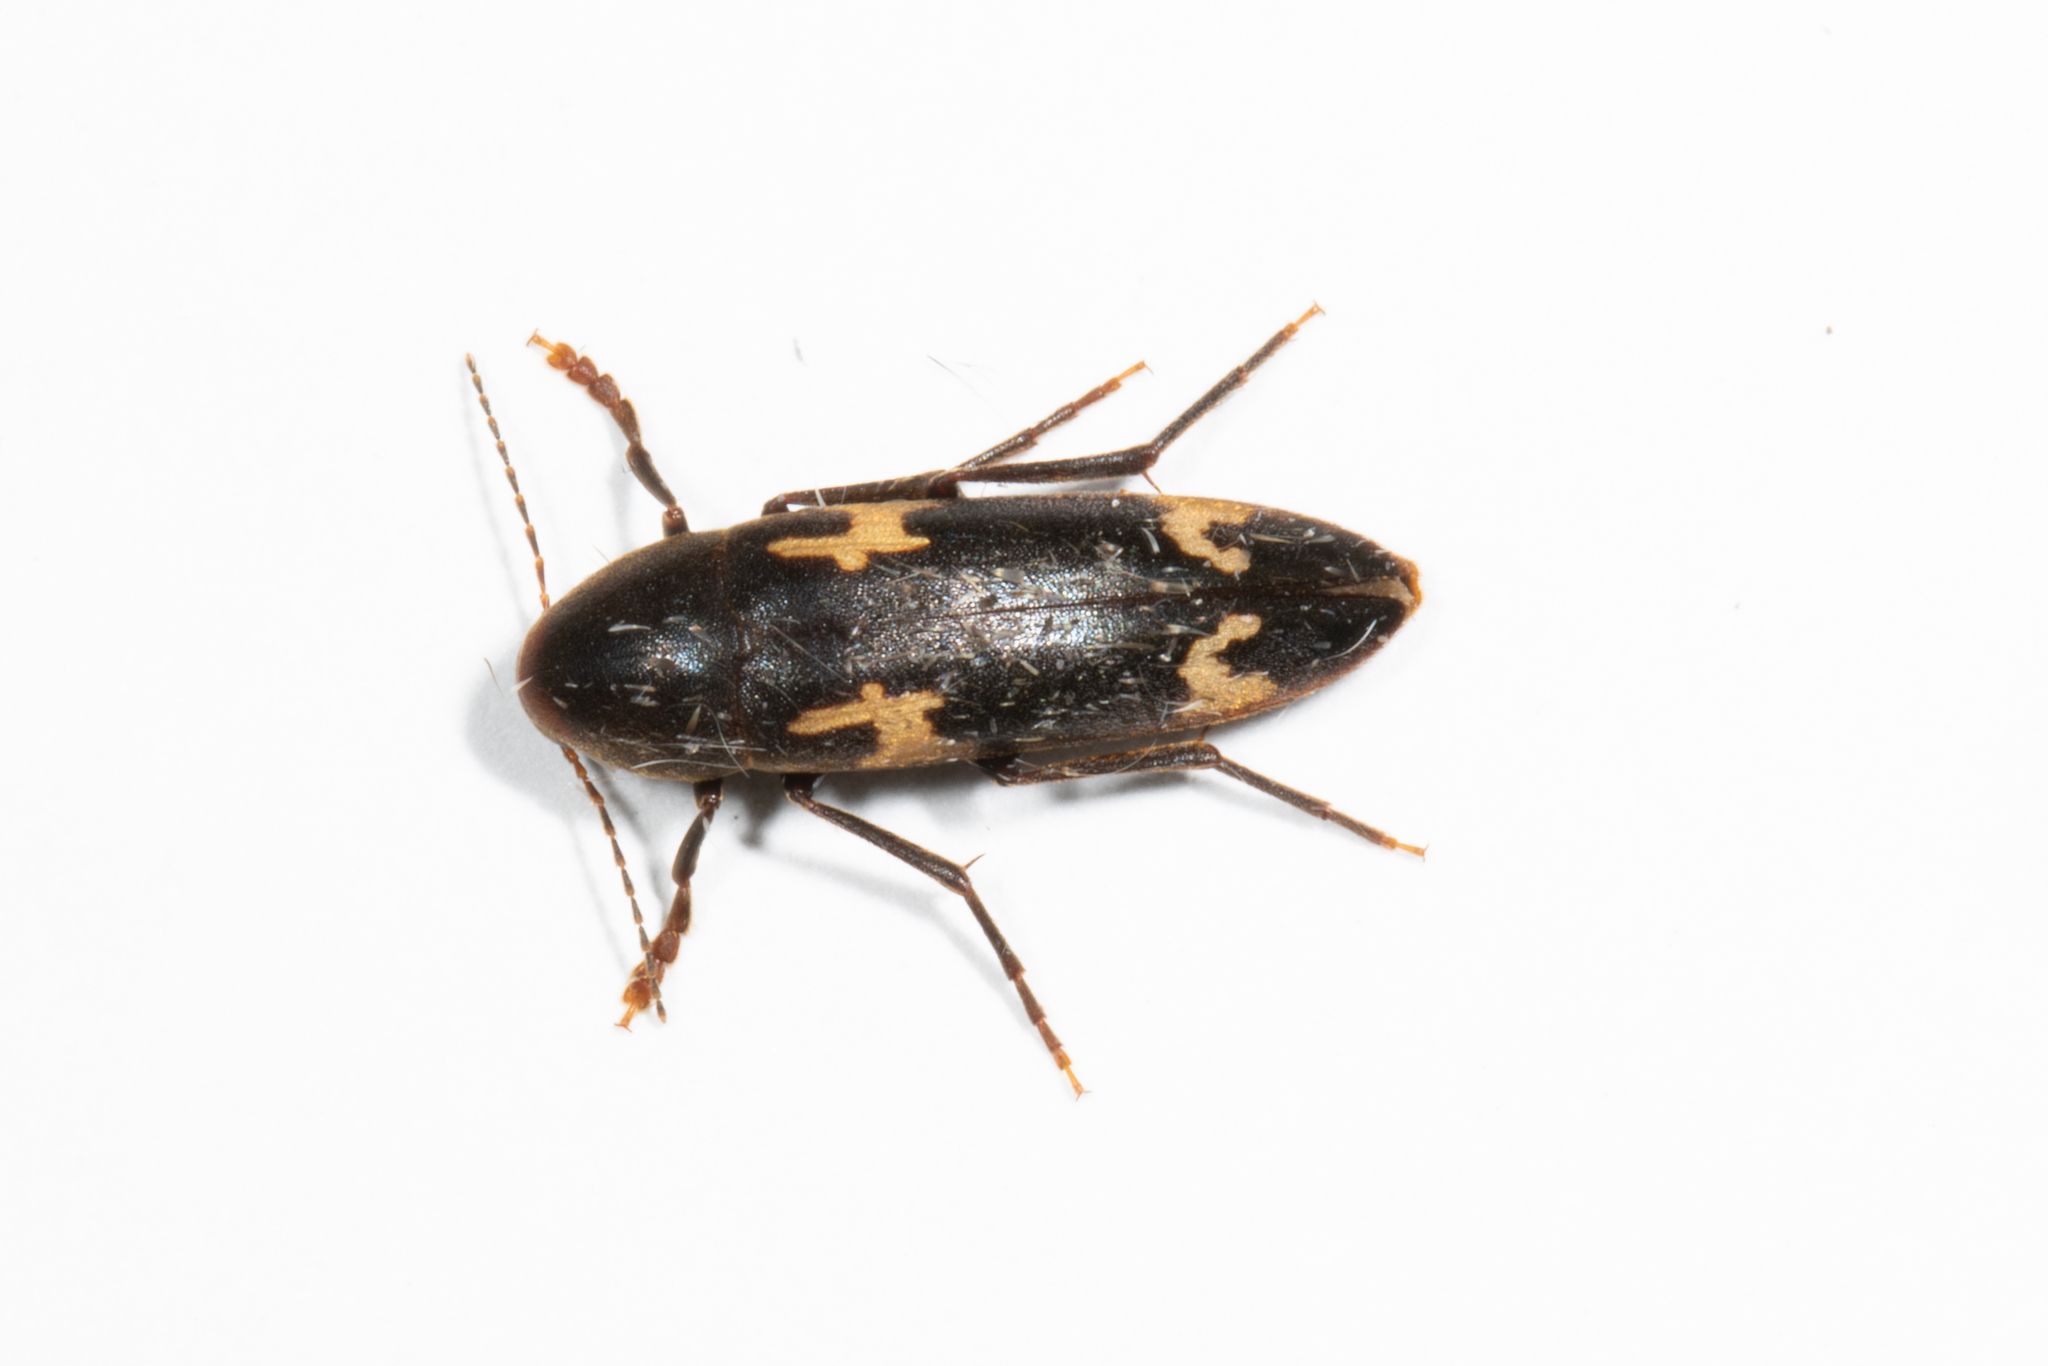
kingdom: Animalia
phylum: Arthropoda
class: Insecta
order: Coleoptera
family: Melandryidae
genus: Dircaea
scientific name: Dircaea liturata
